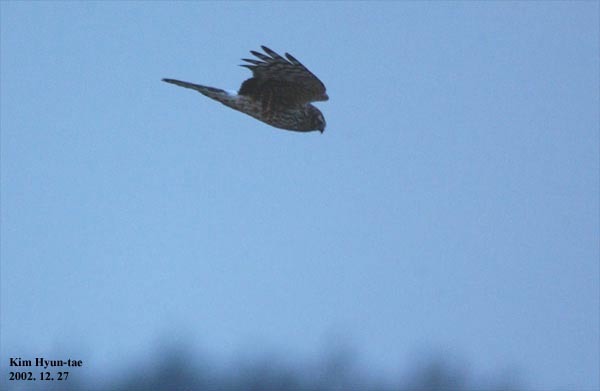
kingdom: Animalia
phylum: Chordata
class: Aves
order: Accipitriformes
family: Accipitridae
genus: Circus
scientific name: Circus cyaneus
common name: Hen harrier
